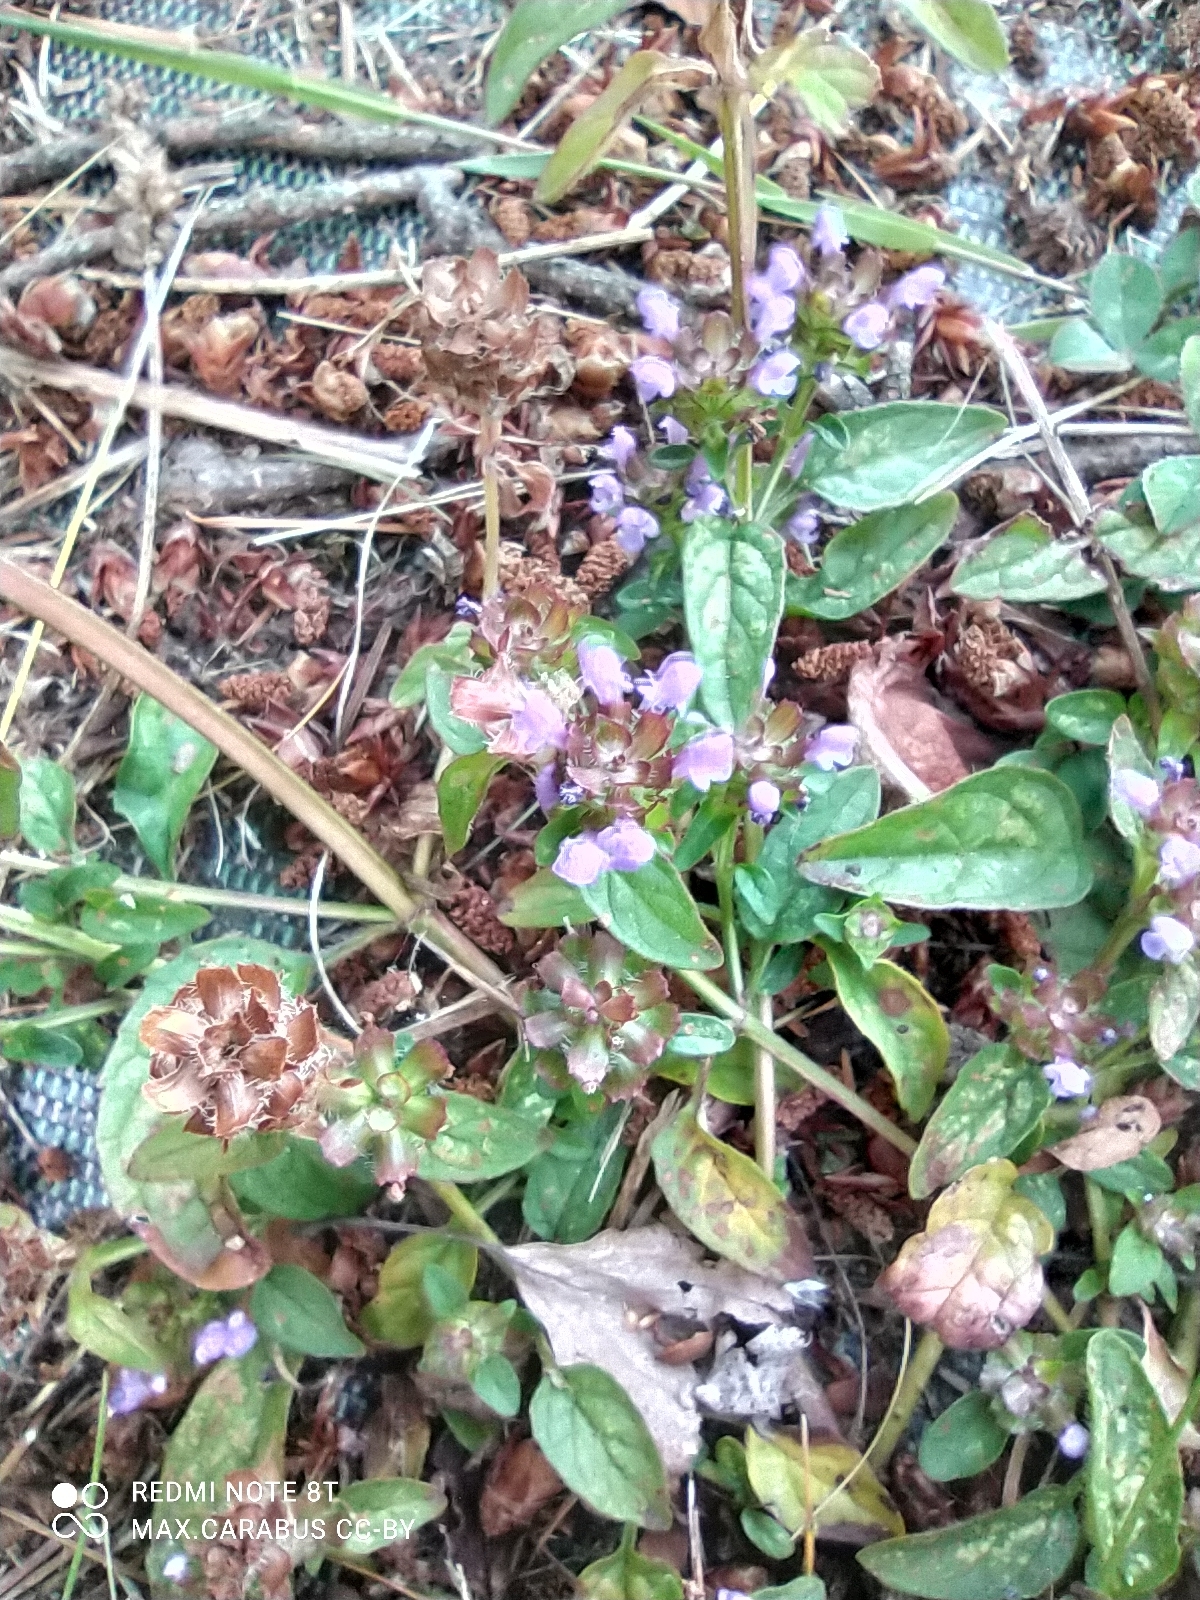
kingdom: Plantae
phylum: Tracheophyta
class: Magnoliopsida
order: Lamiales
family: Lamiaceae
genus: Prunella
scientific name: Prunella vulgaris
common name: Heal-all
